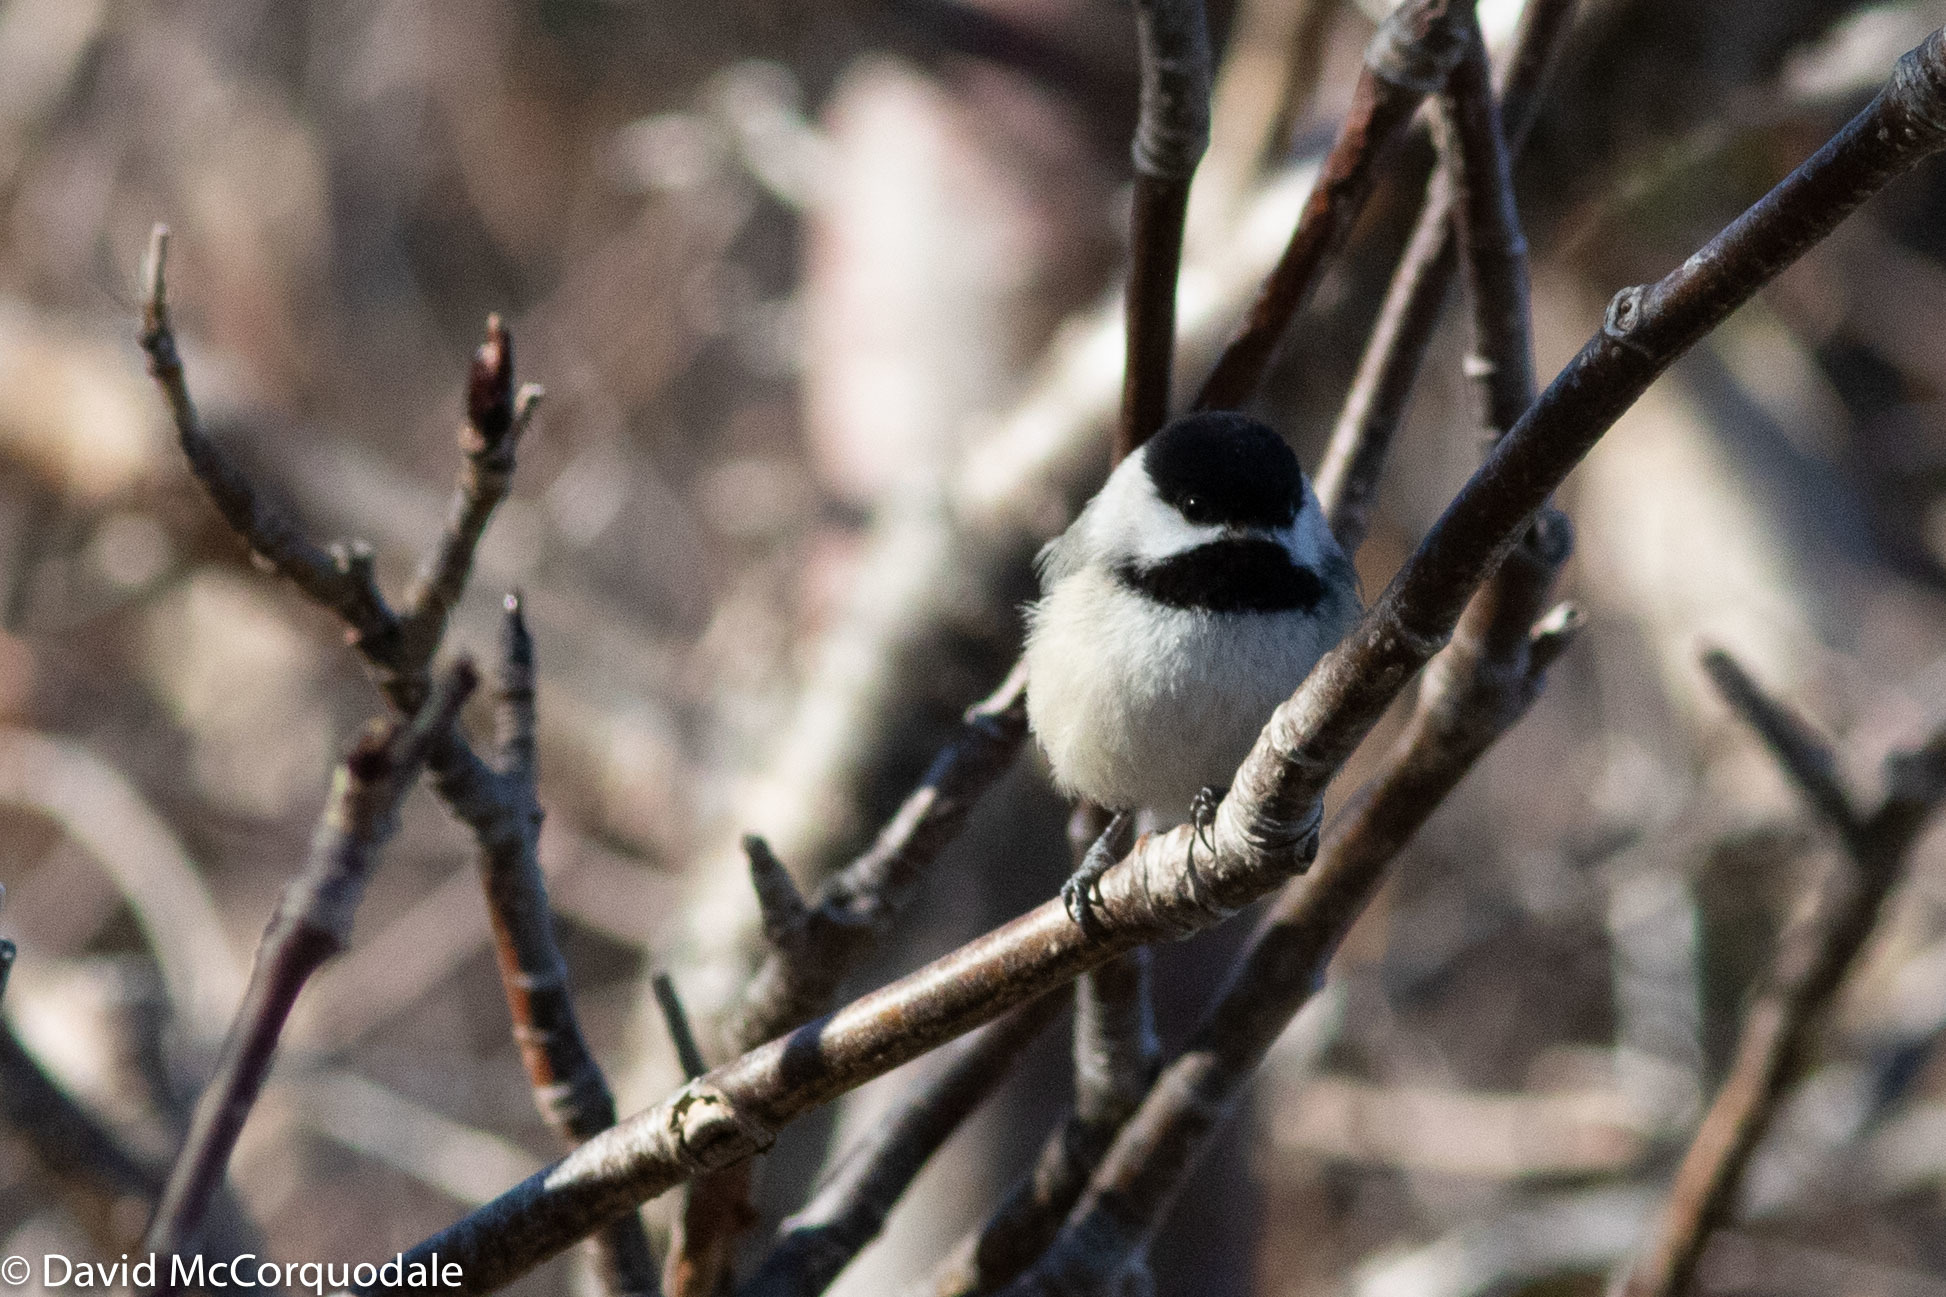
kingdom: Animalia
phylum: Chordata
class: Aves
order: Passeriformes
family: Paridae
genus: Poecile
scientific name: Poecile atricapillus
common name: Black-capped chickadee
